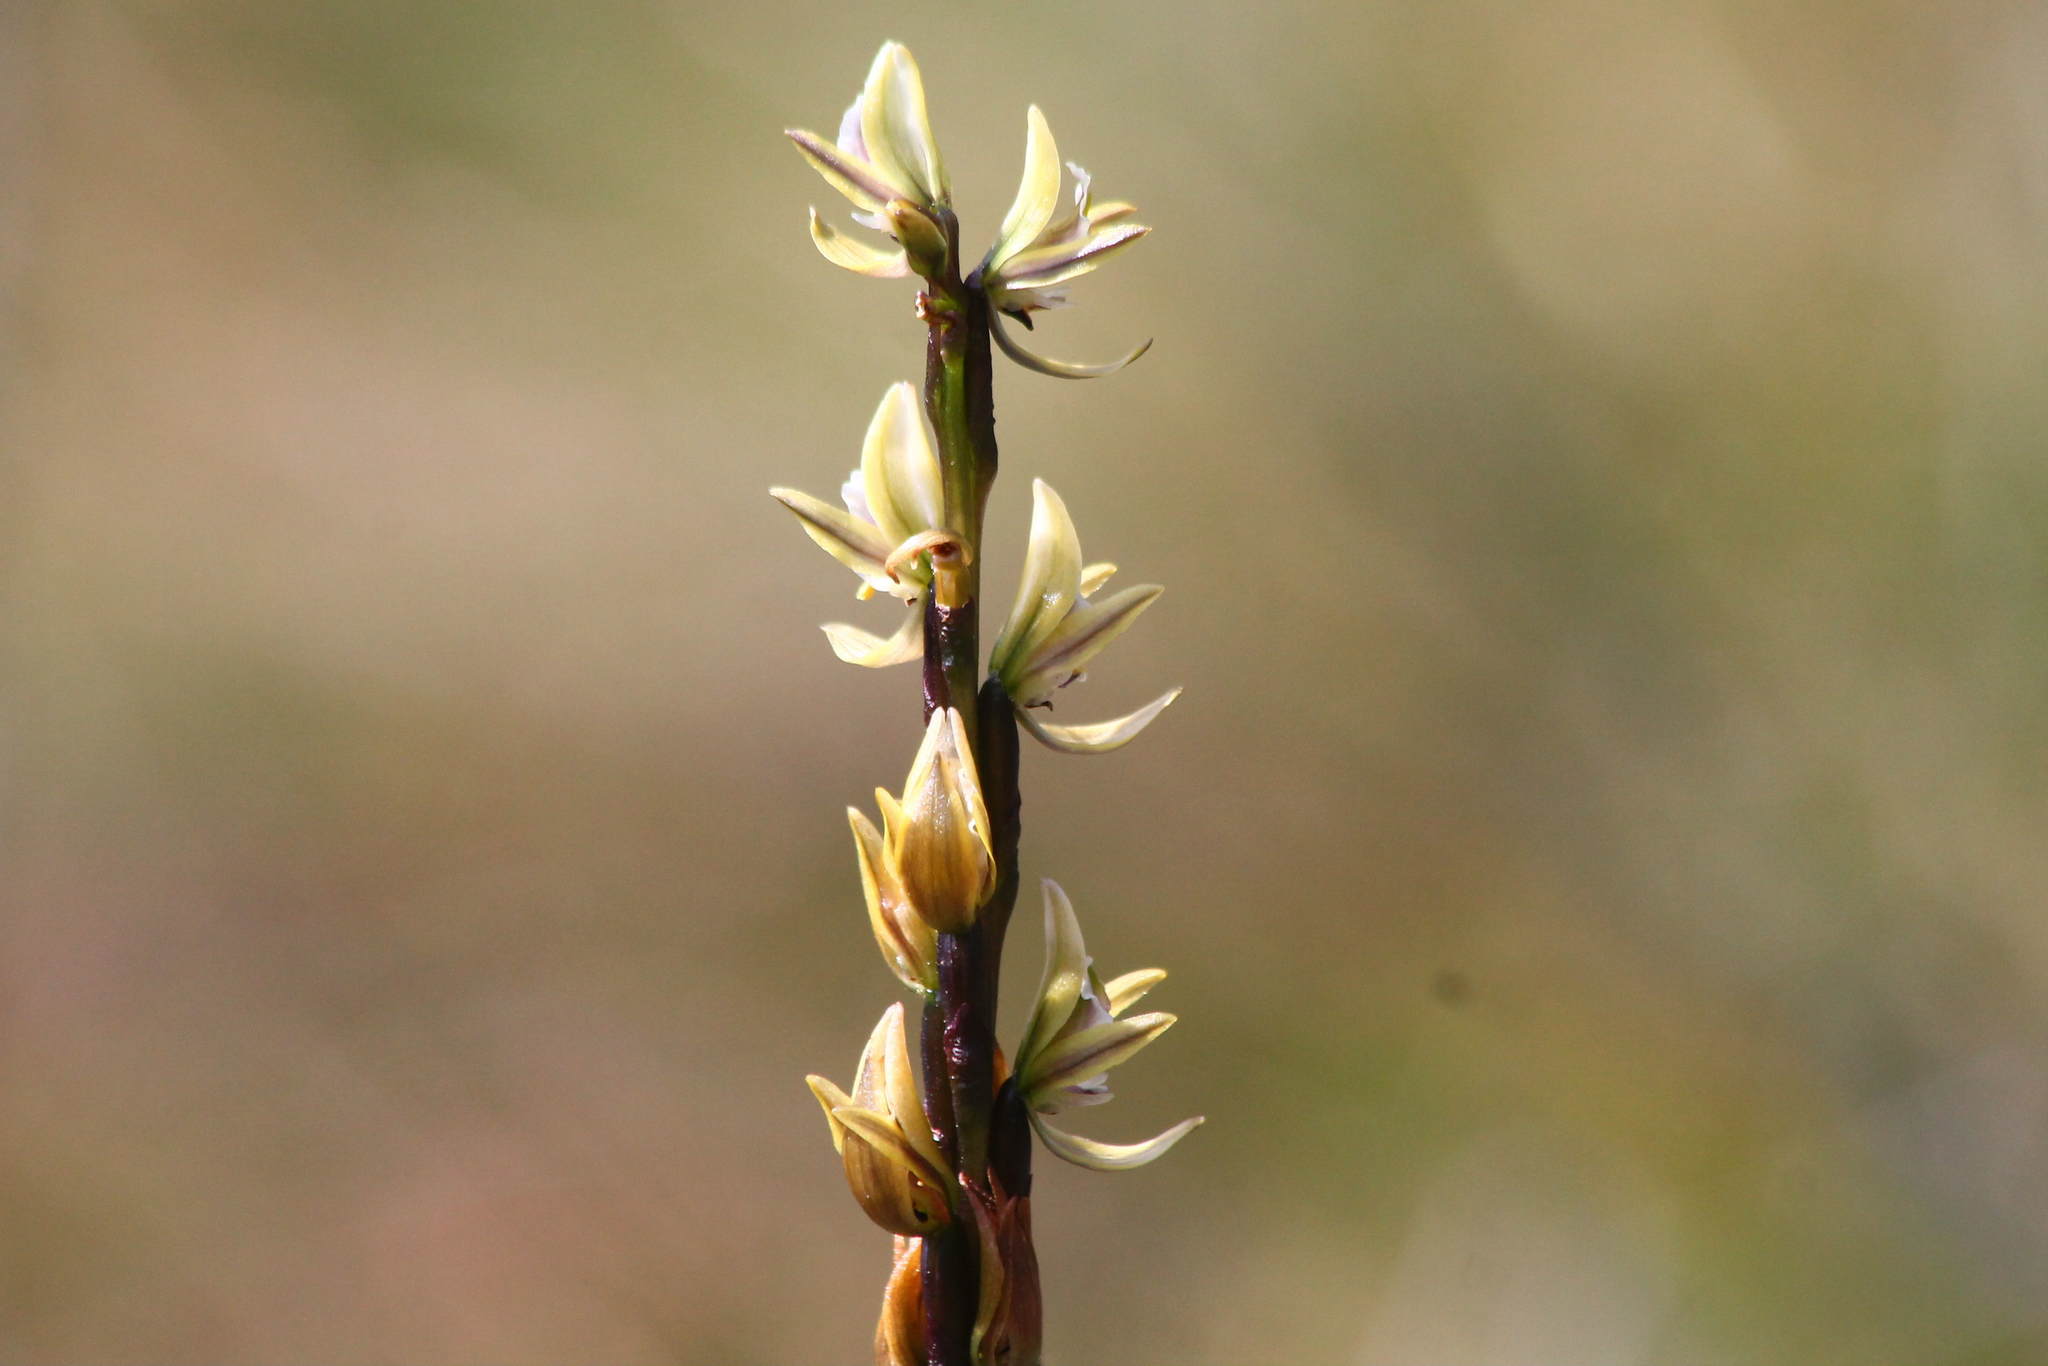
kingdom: Plantae
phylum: Tracheophyta
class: Liliopsida
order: Asparagales
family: Orchidaceae
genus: Prasophyllum
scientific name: Prasophyllum elatum
